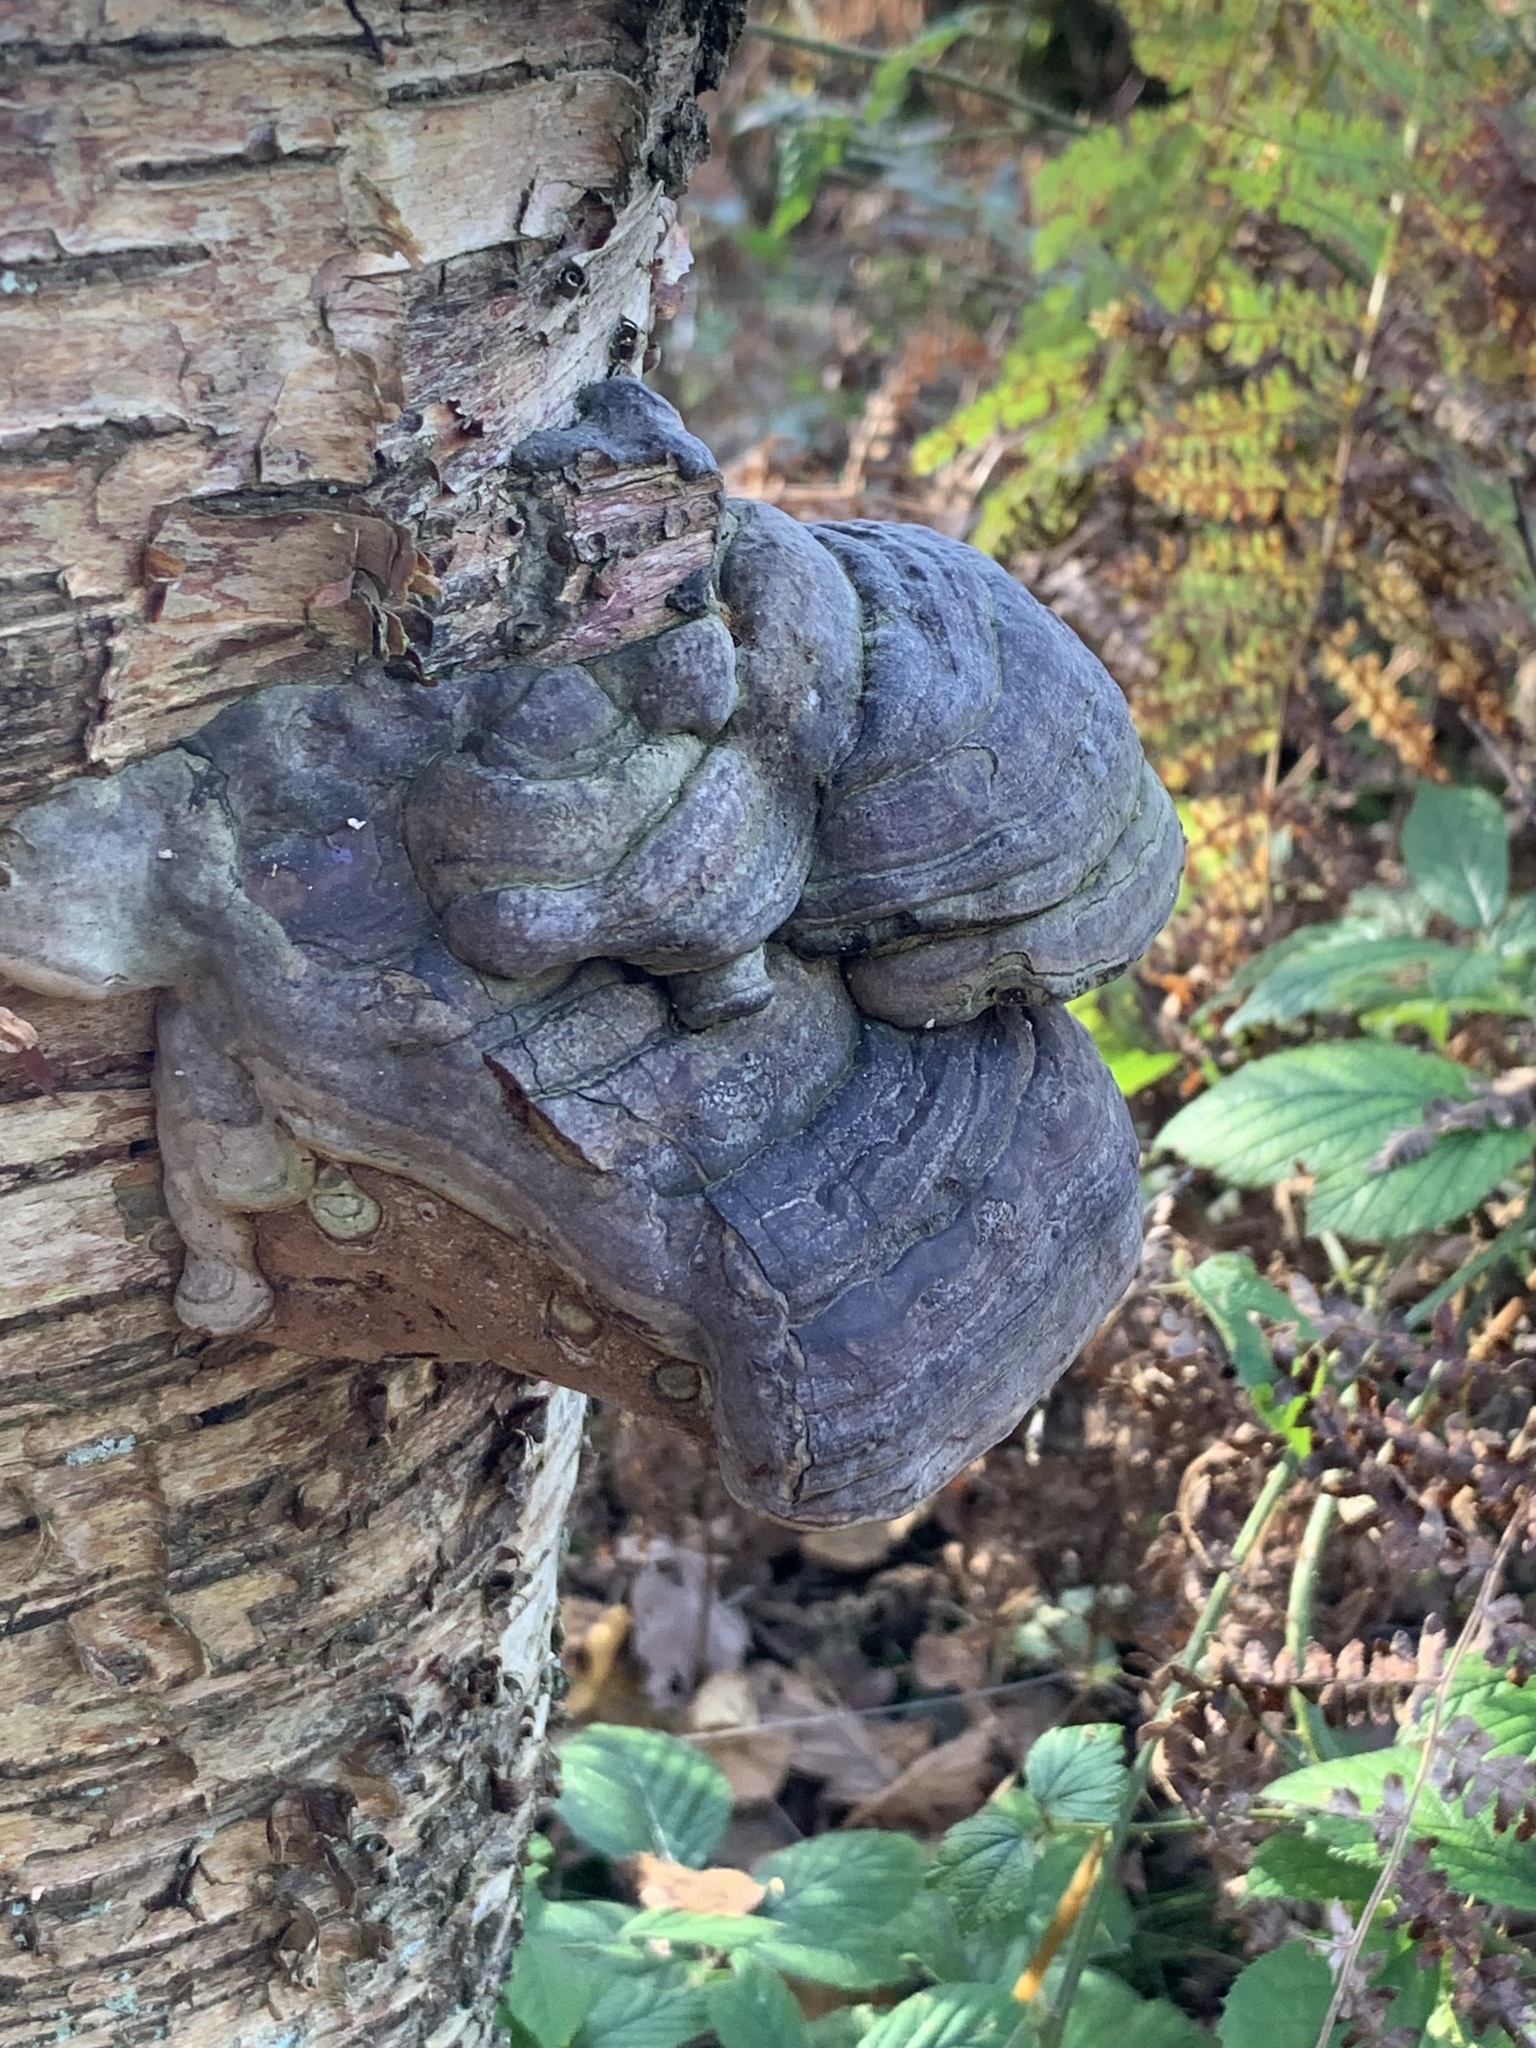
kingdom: Fungi
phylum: Basidiomycota
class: Agaricomycetes
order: Polyporales
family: Polyporaceae
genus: Fomes
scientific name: Fomes fomentarius
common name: Hoof fungus
